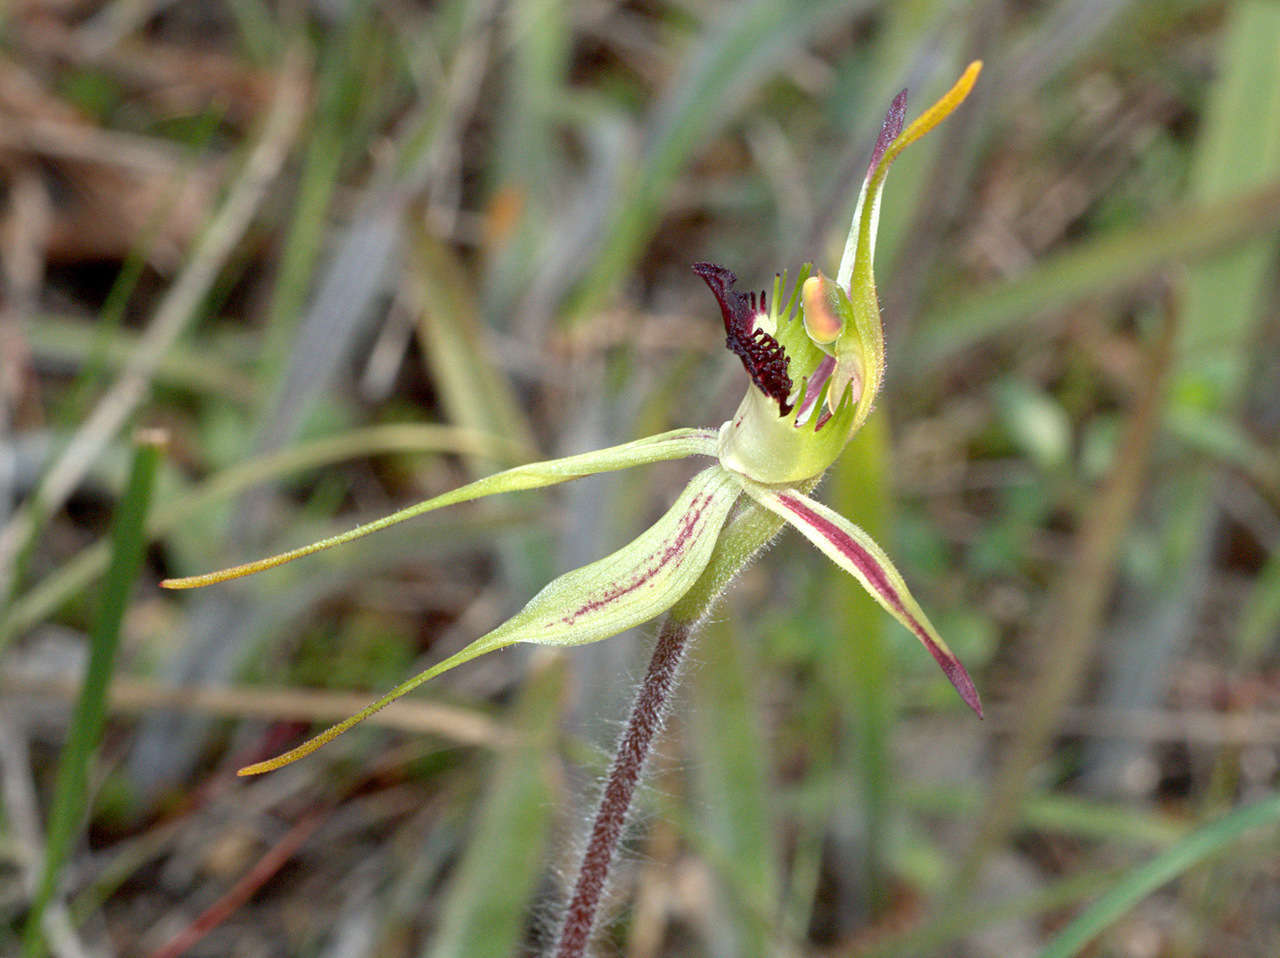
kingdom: Plantae
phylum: Tracheophyta
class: Liliopsida
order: Asparagales
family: Orchidaceae
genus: Caladenia
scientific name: Caladenia parva
